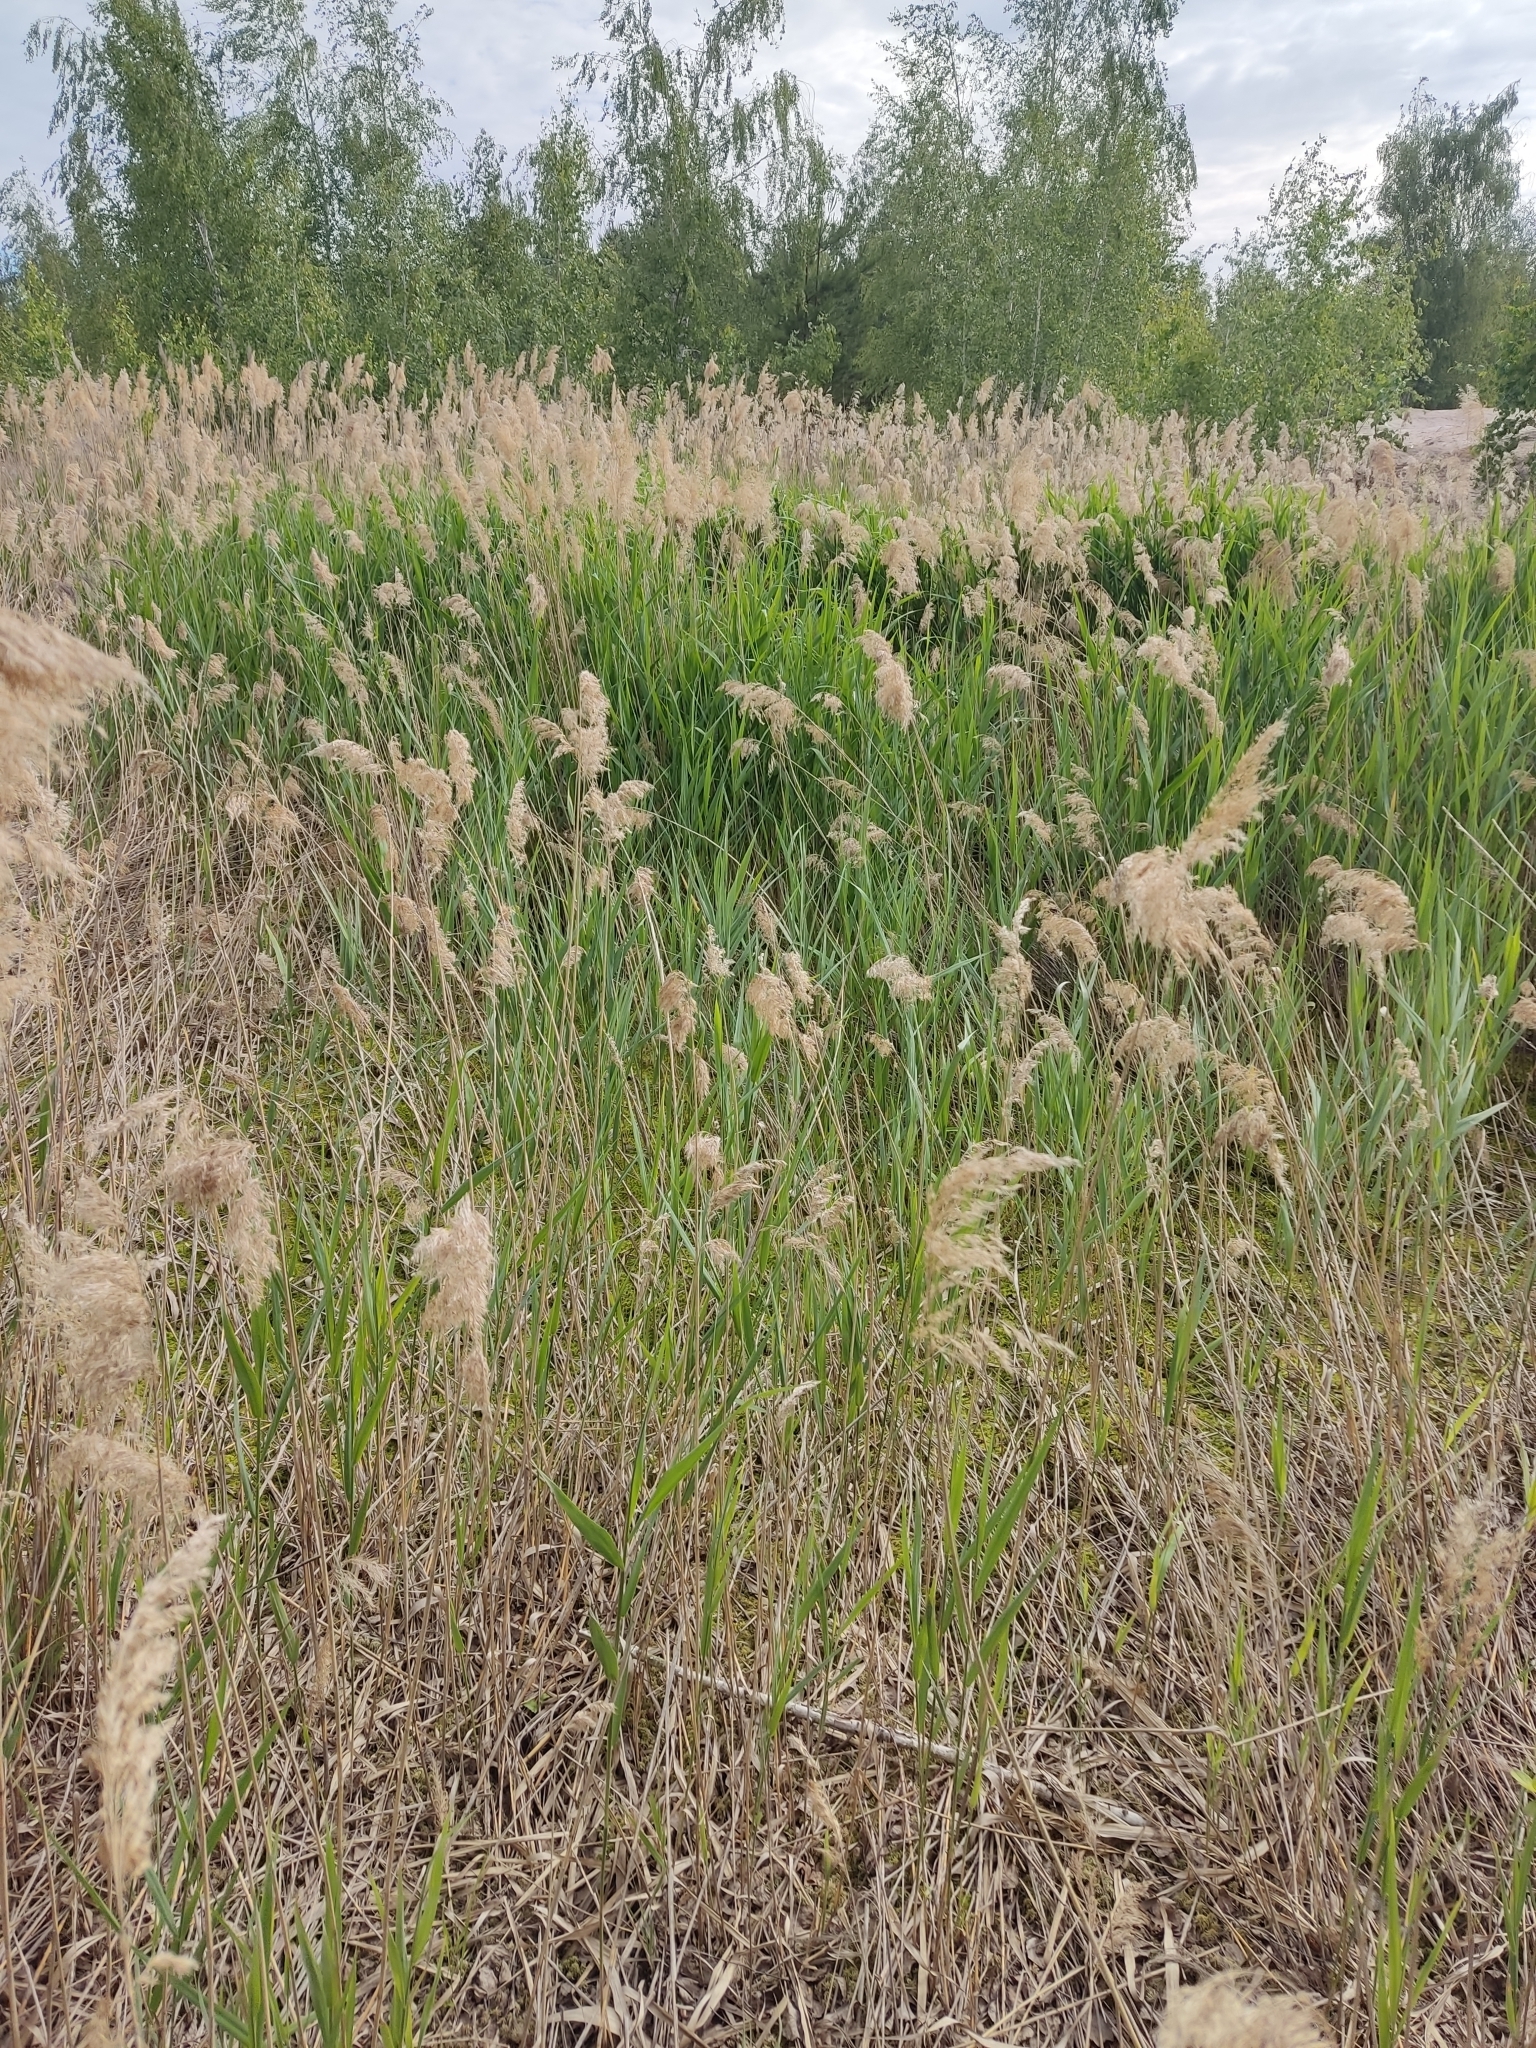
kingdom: Plantae
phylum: Tracheophyta
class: Liliopsida
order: Poales
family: Poaceae
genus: Phragmites
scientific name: Phragmites australis
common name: Common reed
